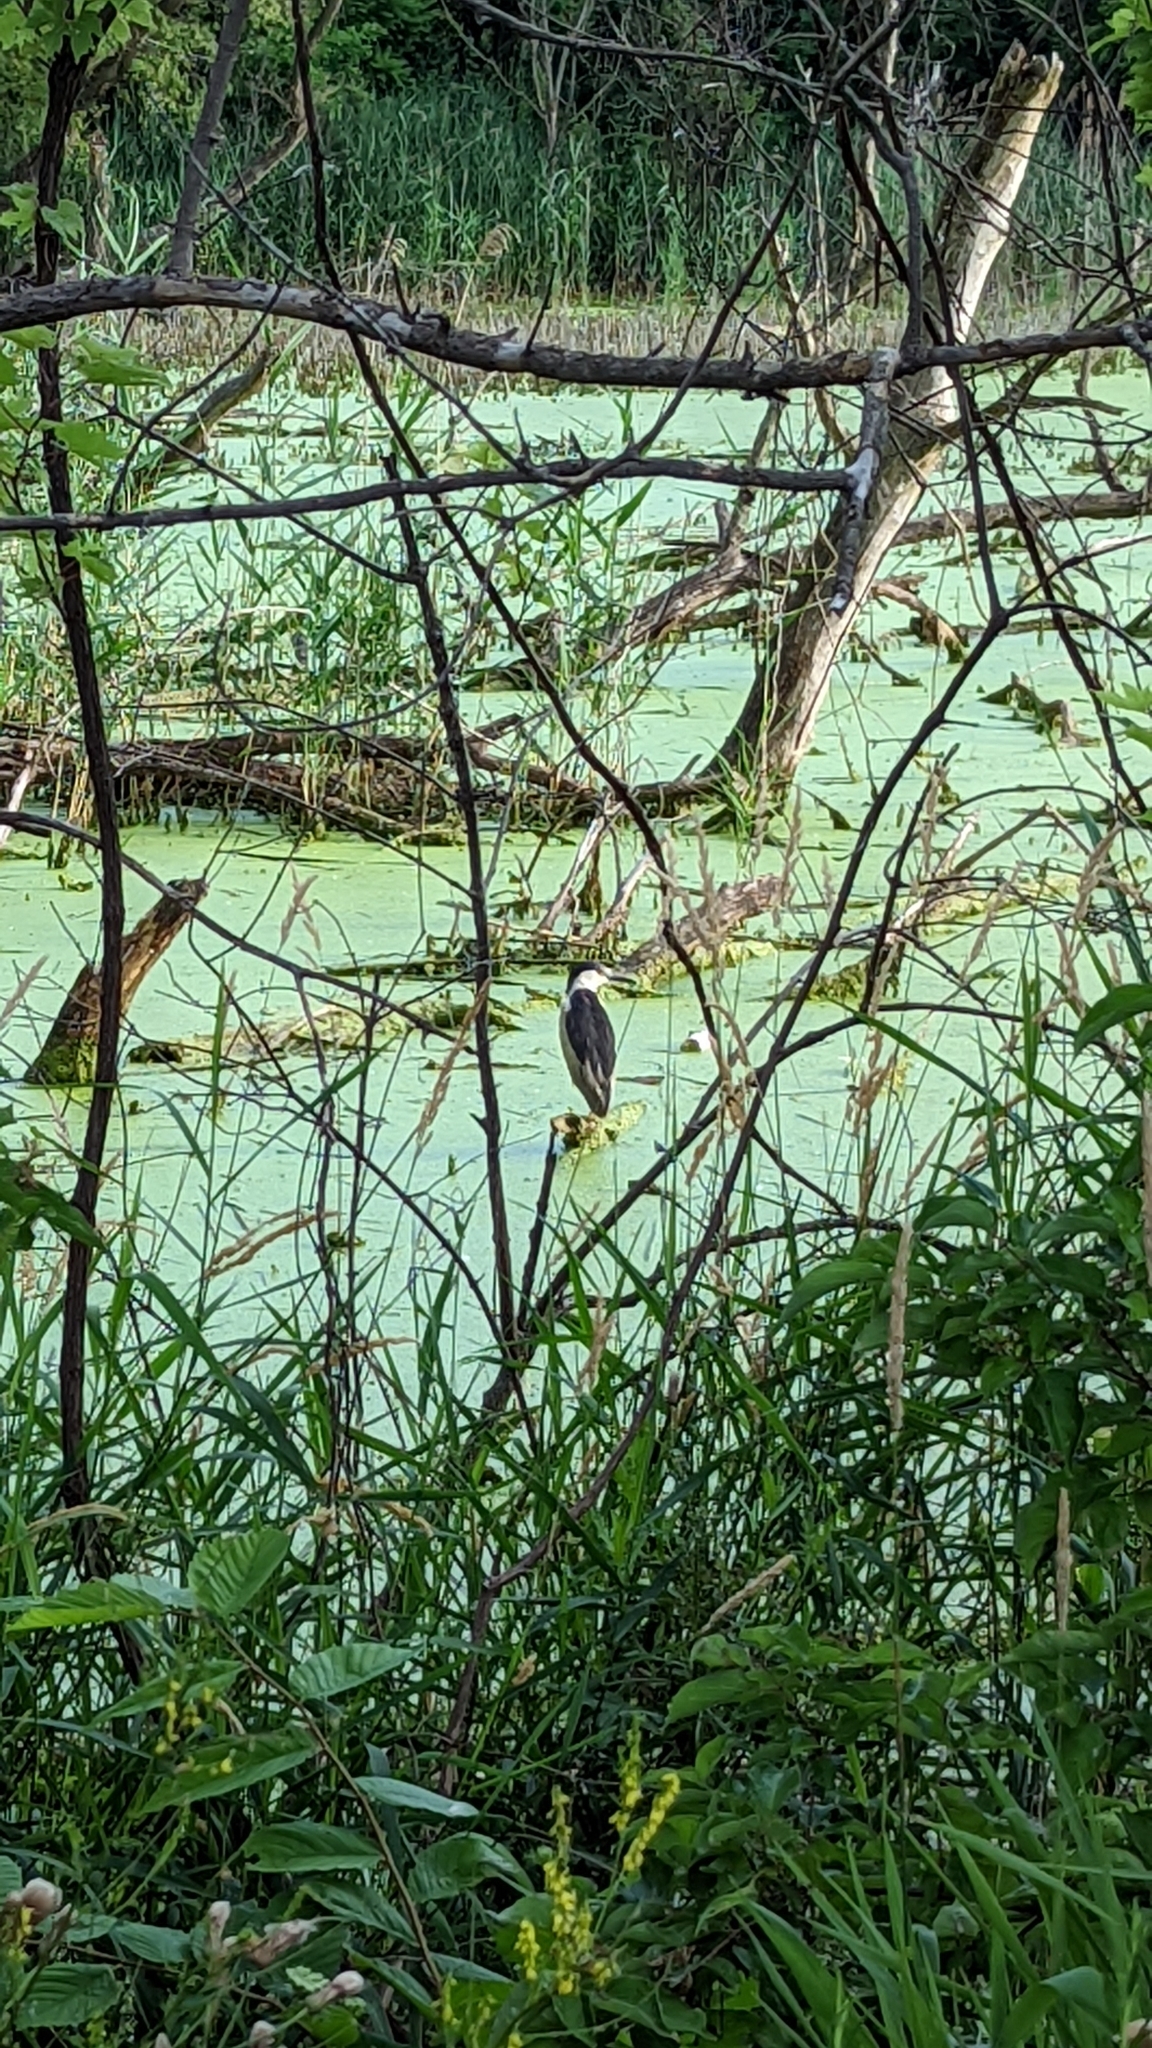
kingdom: Animalia
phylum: Chordata
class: Aves
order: Pelecaniformes
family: Ardeidae
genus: Nycticorax
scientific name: Nycticorax nycticorax
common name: Black-crowned night heron
